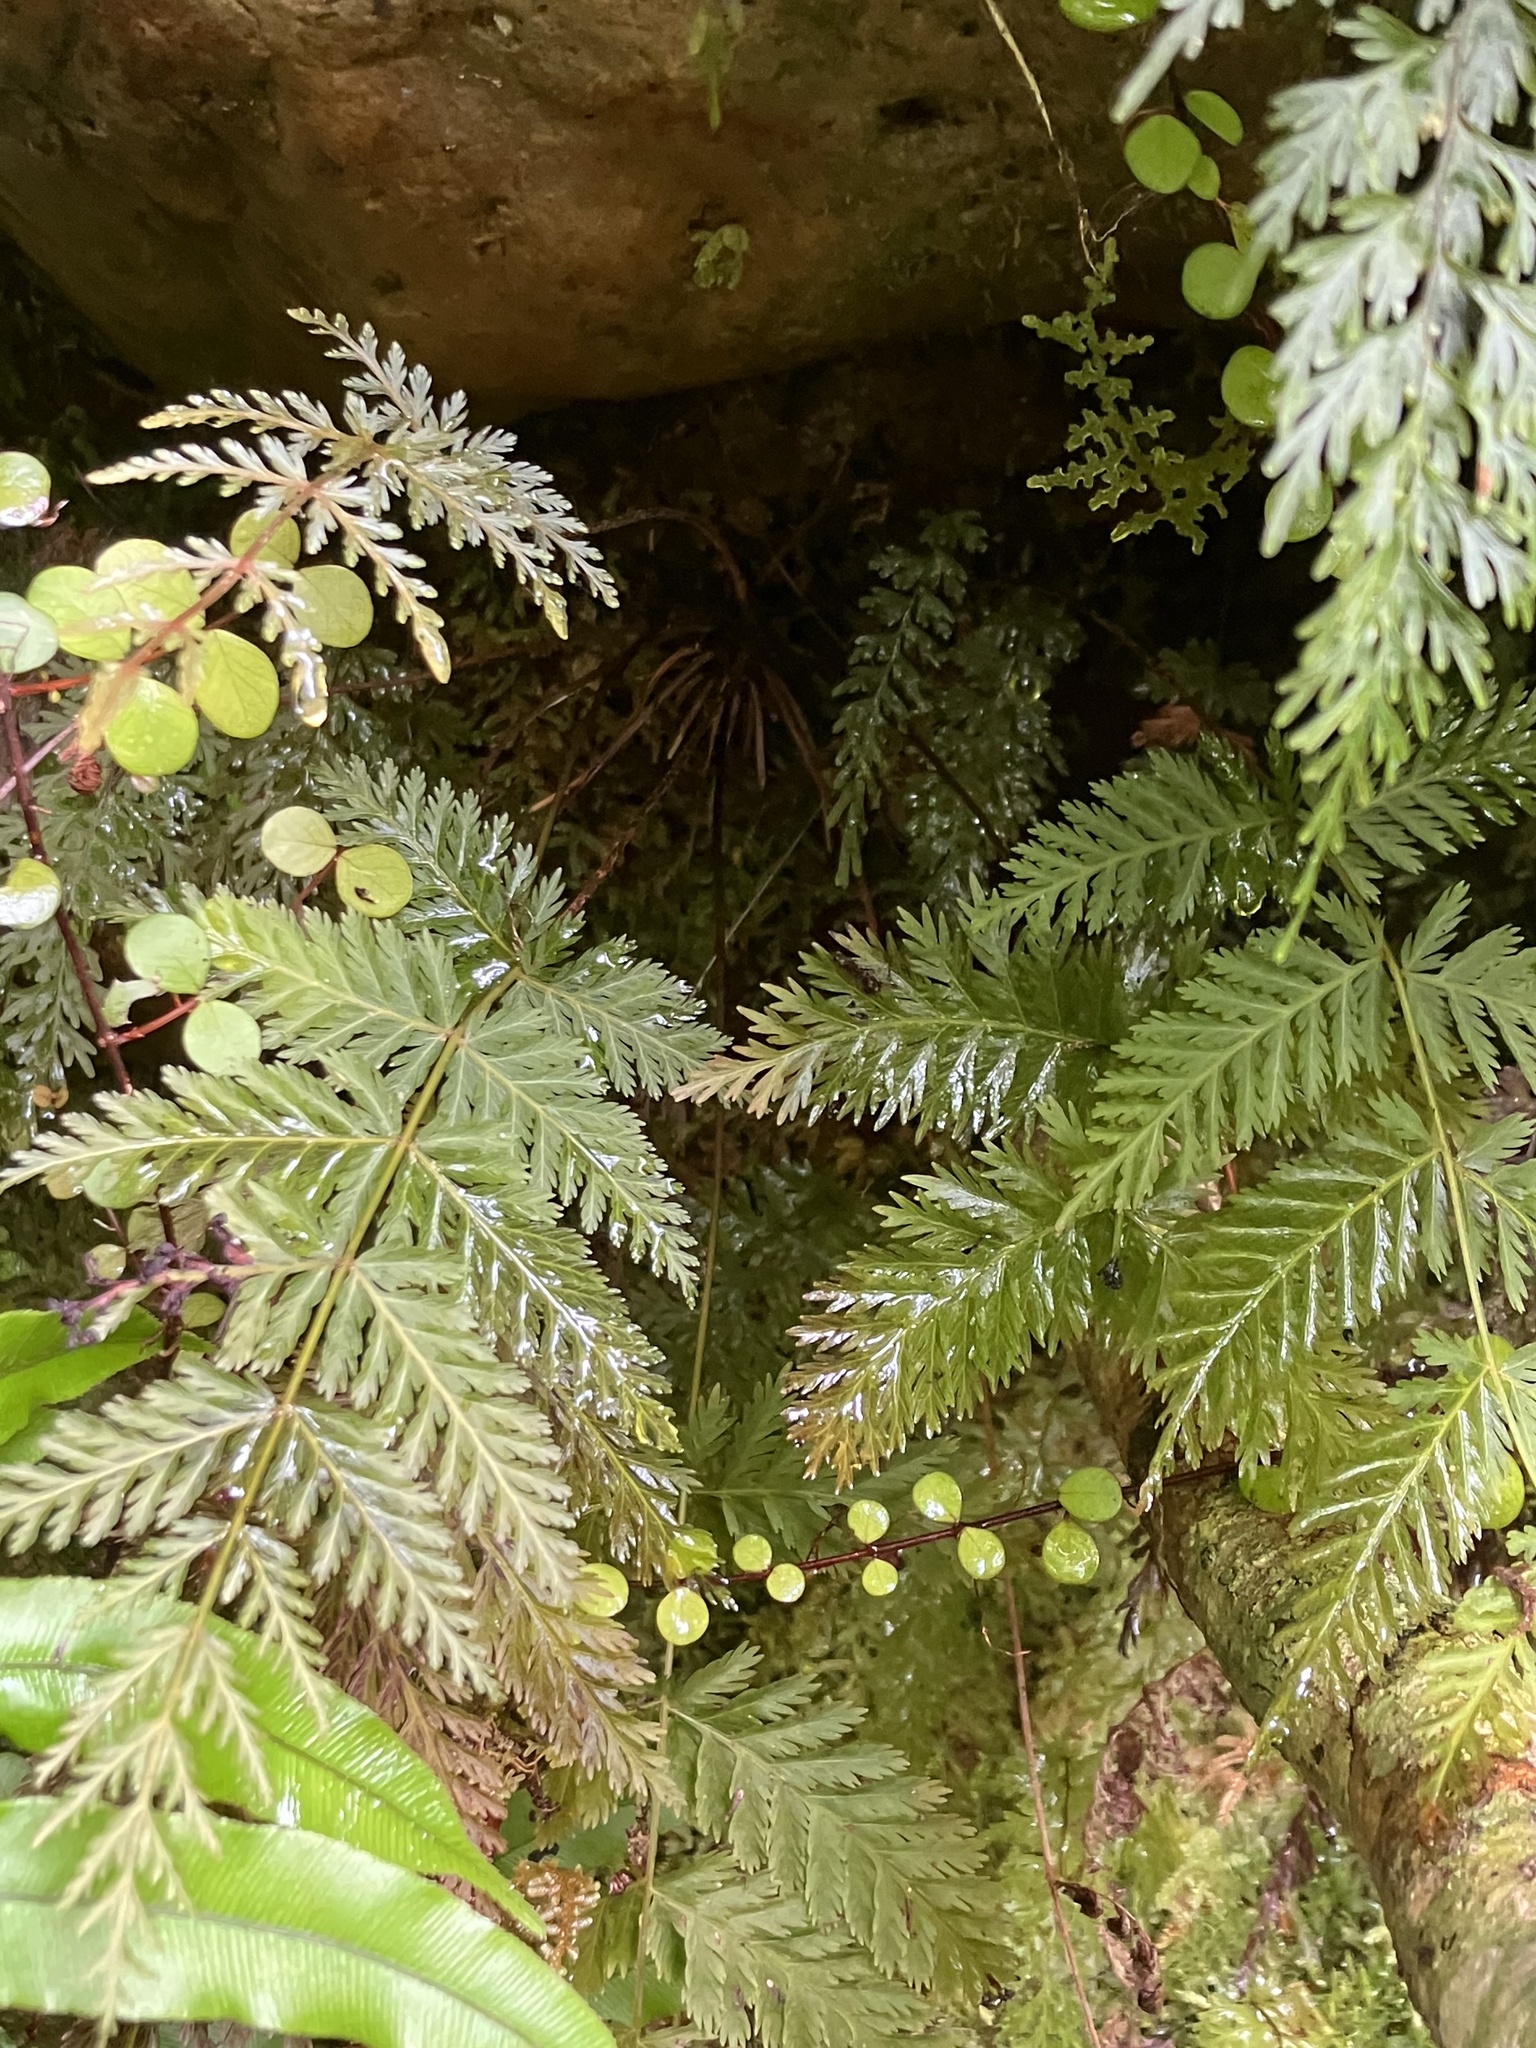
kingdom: Plantae
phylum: Tracheophyta
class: Polypodiopsida
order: Osmundales
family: Osmundaceae
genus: Leptopteris
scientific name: Leptopteris hymenophylloides
